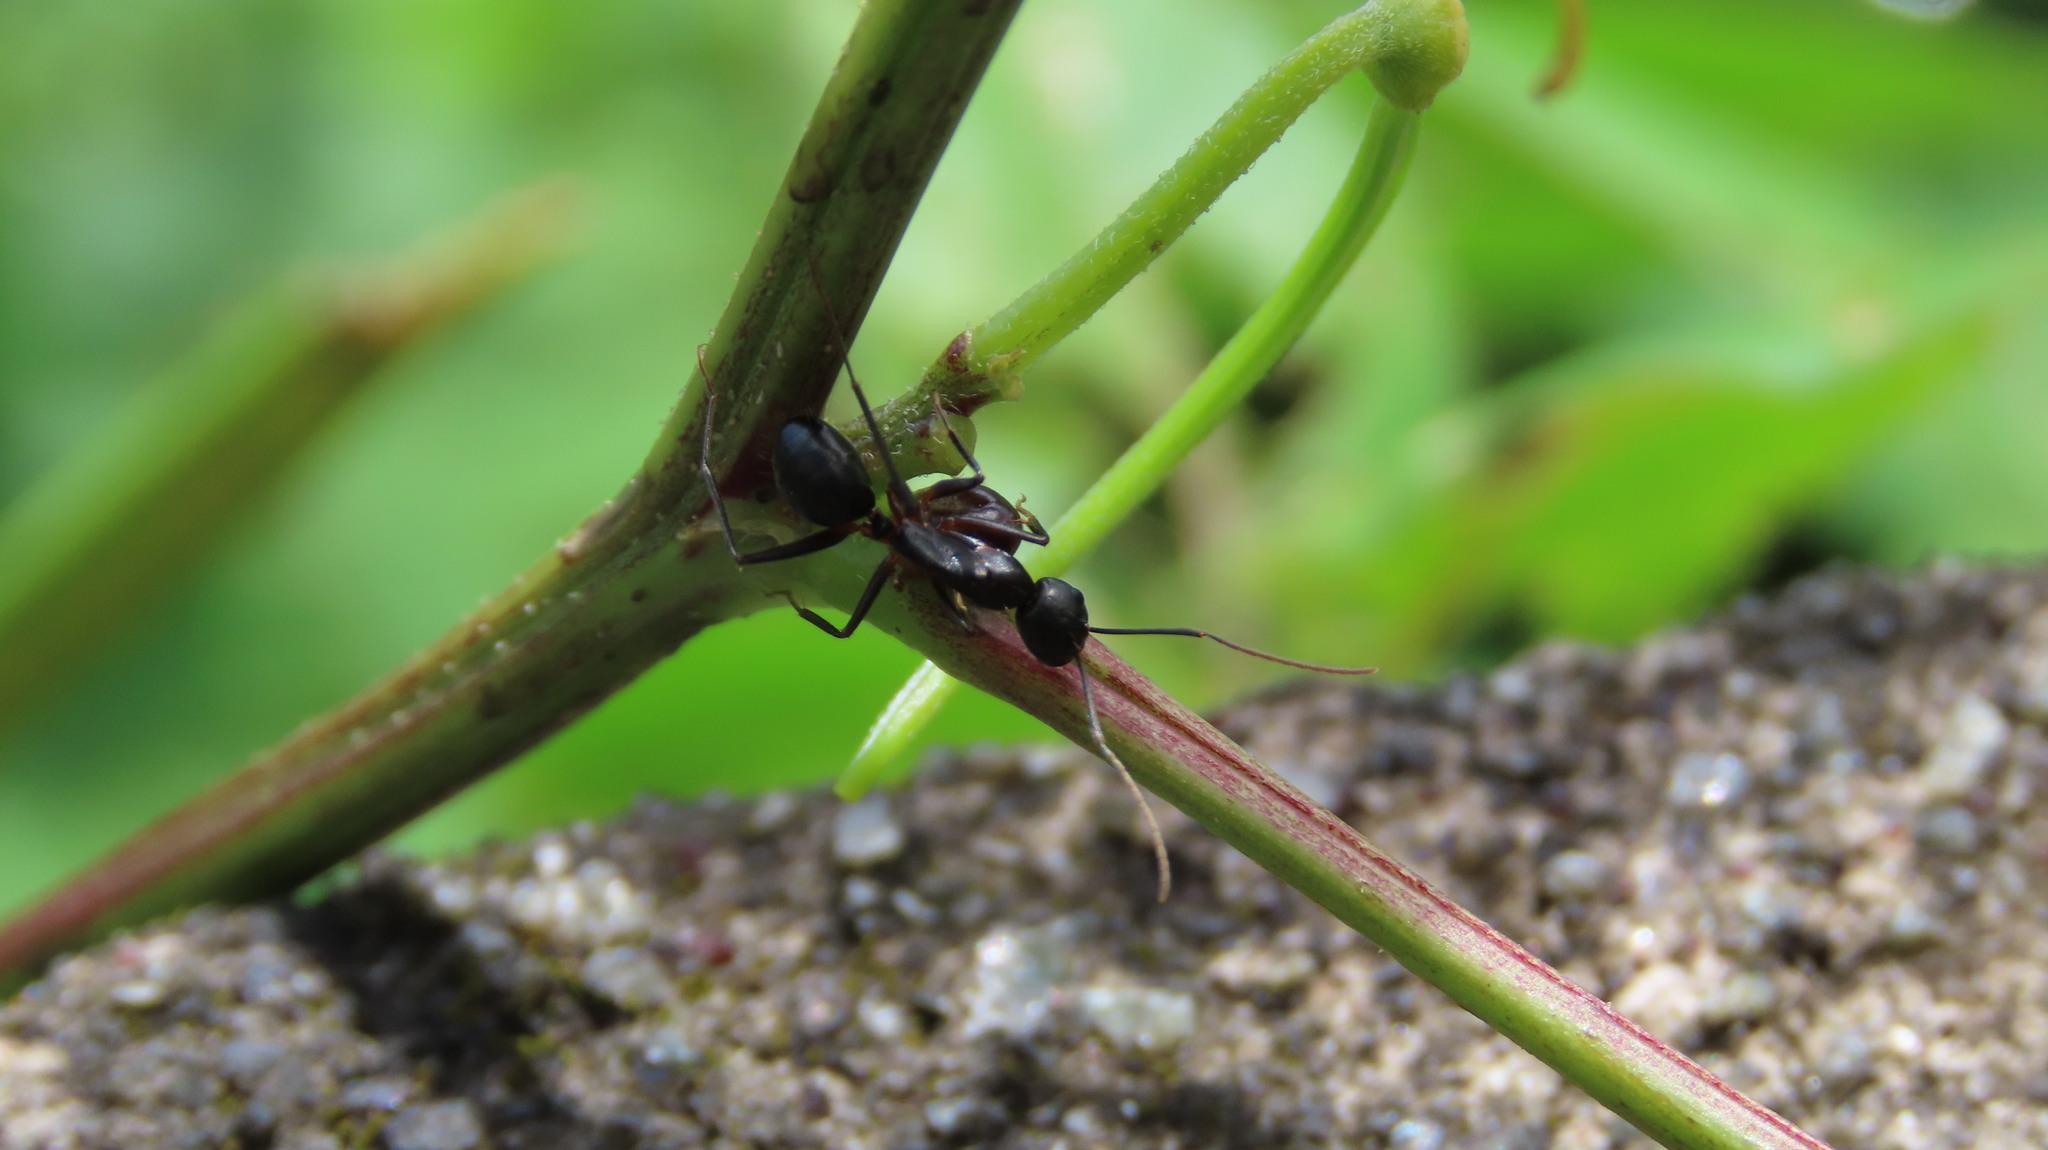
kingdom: Animalia
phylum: Arthropoda
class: Insecta
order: Hymenoptera
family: Formicidae
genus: Camponotus
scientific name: Camponotus compressus
